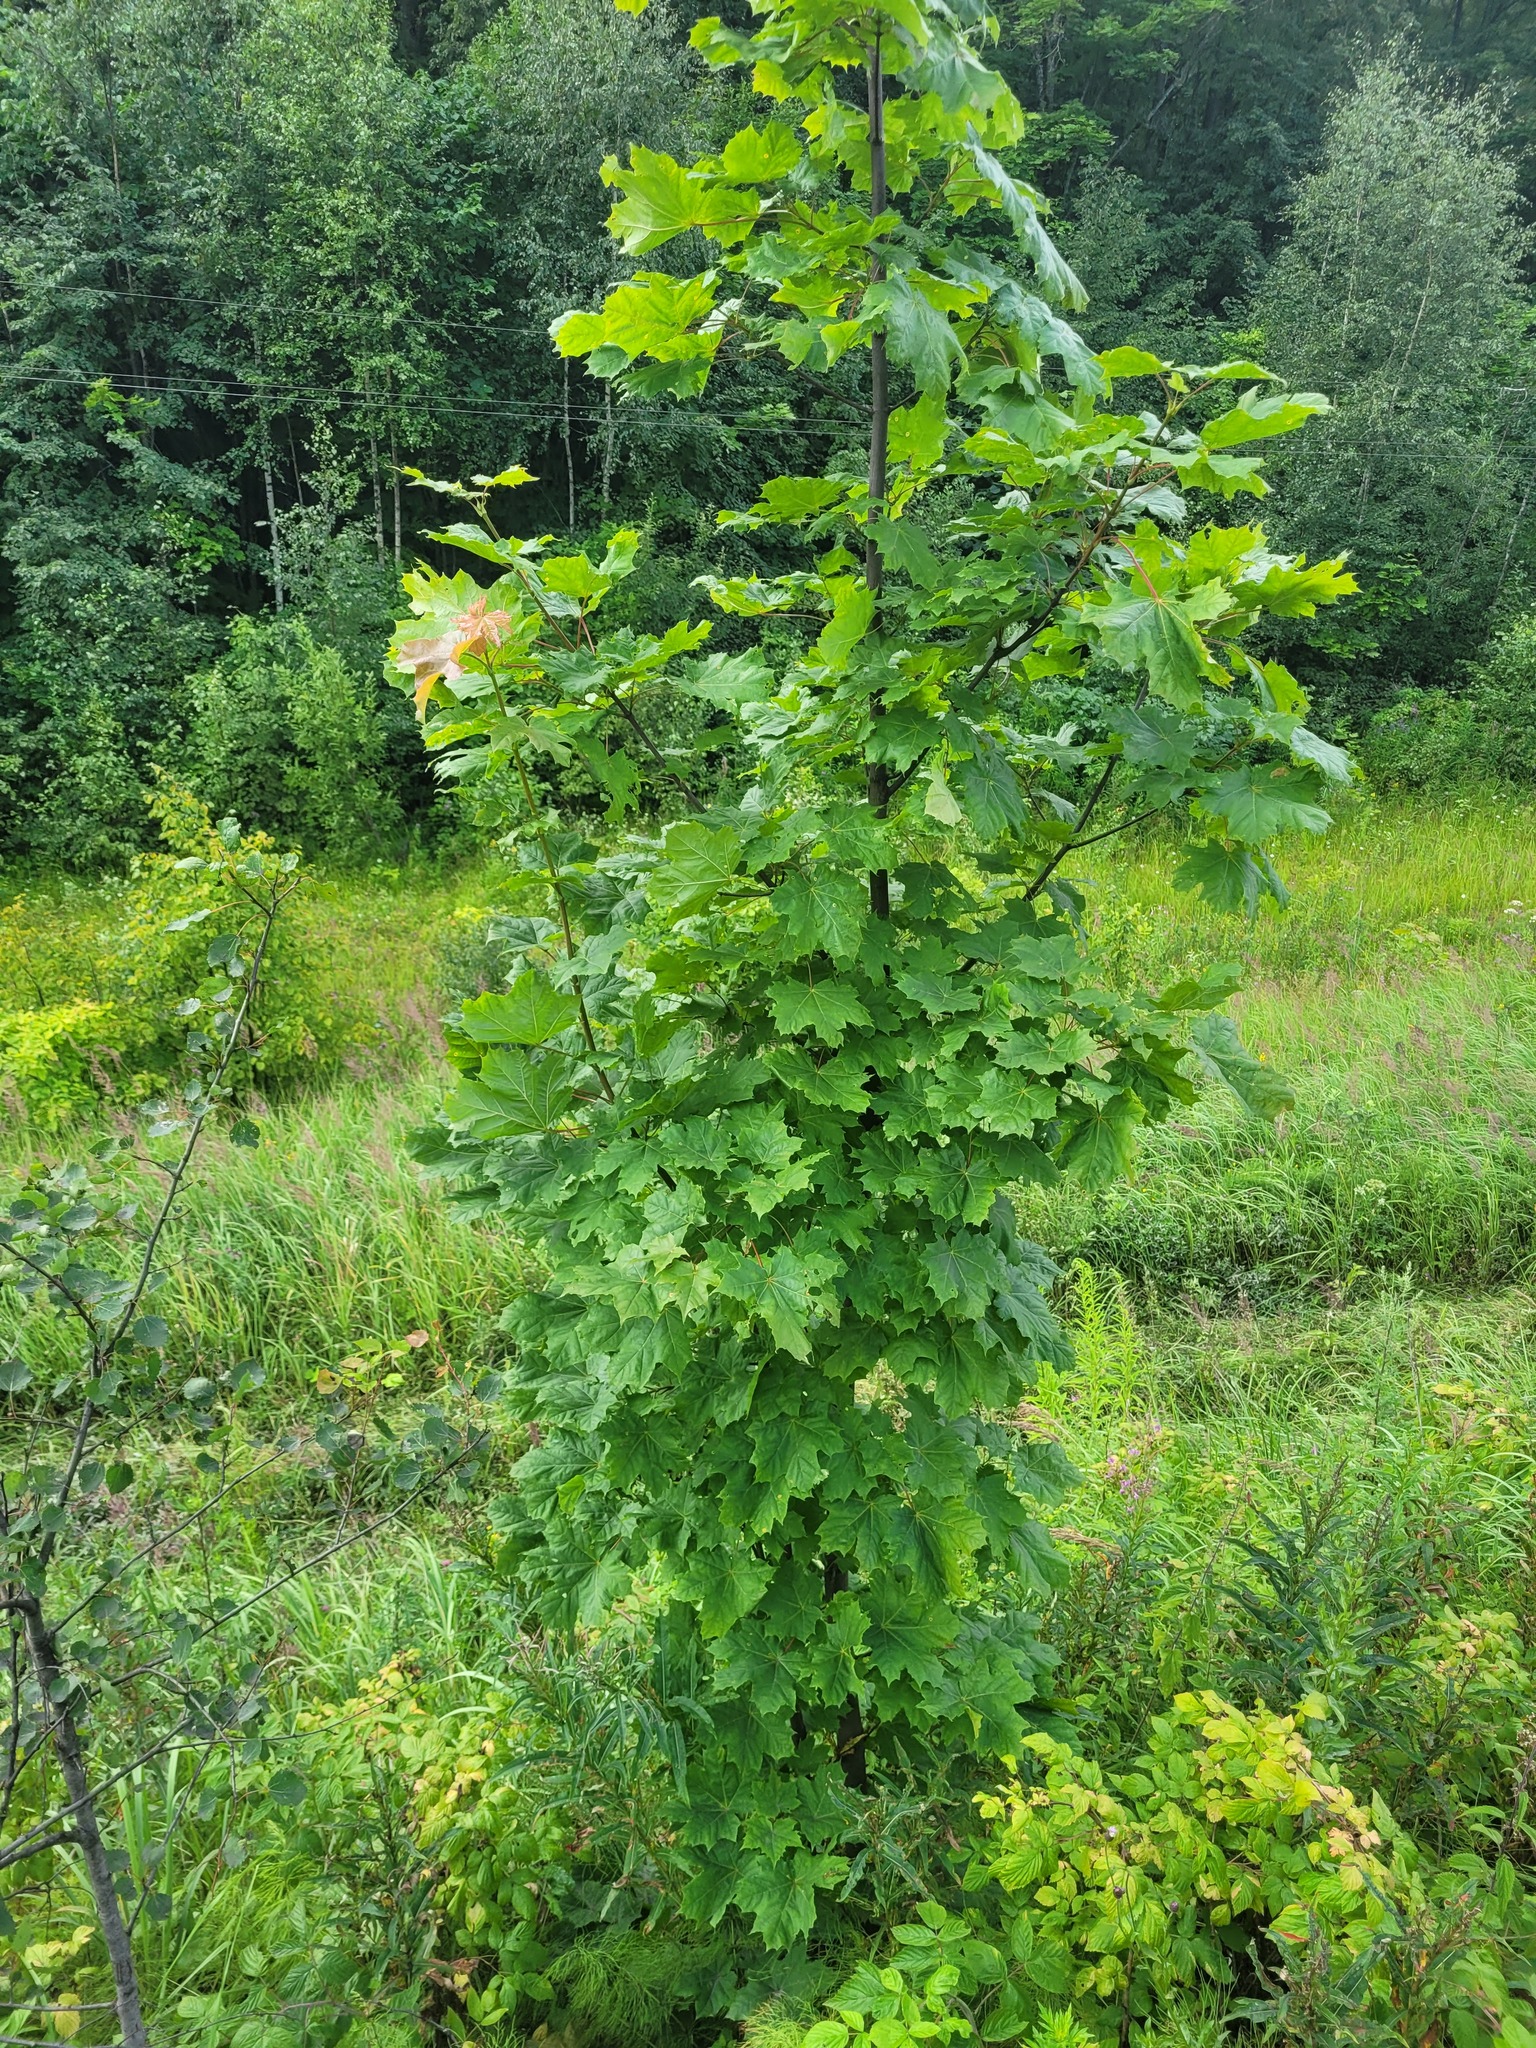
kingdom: Plantae
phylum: Tracheophyta
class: Magnoliopsida
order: Sapindales
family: Sapindaceae
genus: Acer
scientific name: Acer platanoides
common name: Norway maple
